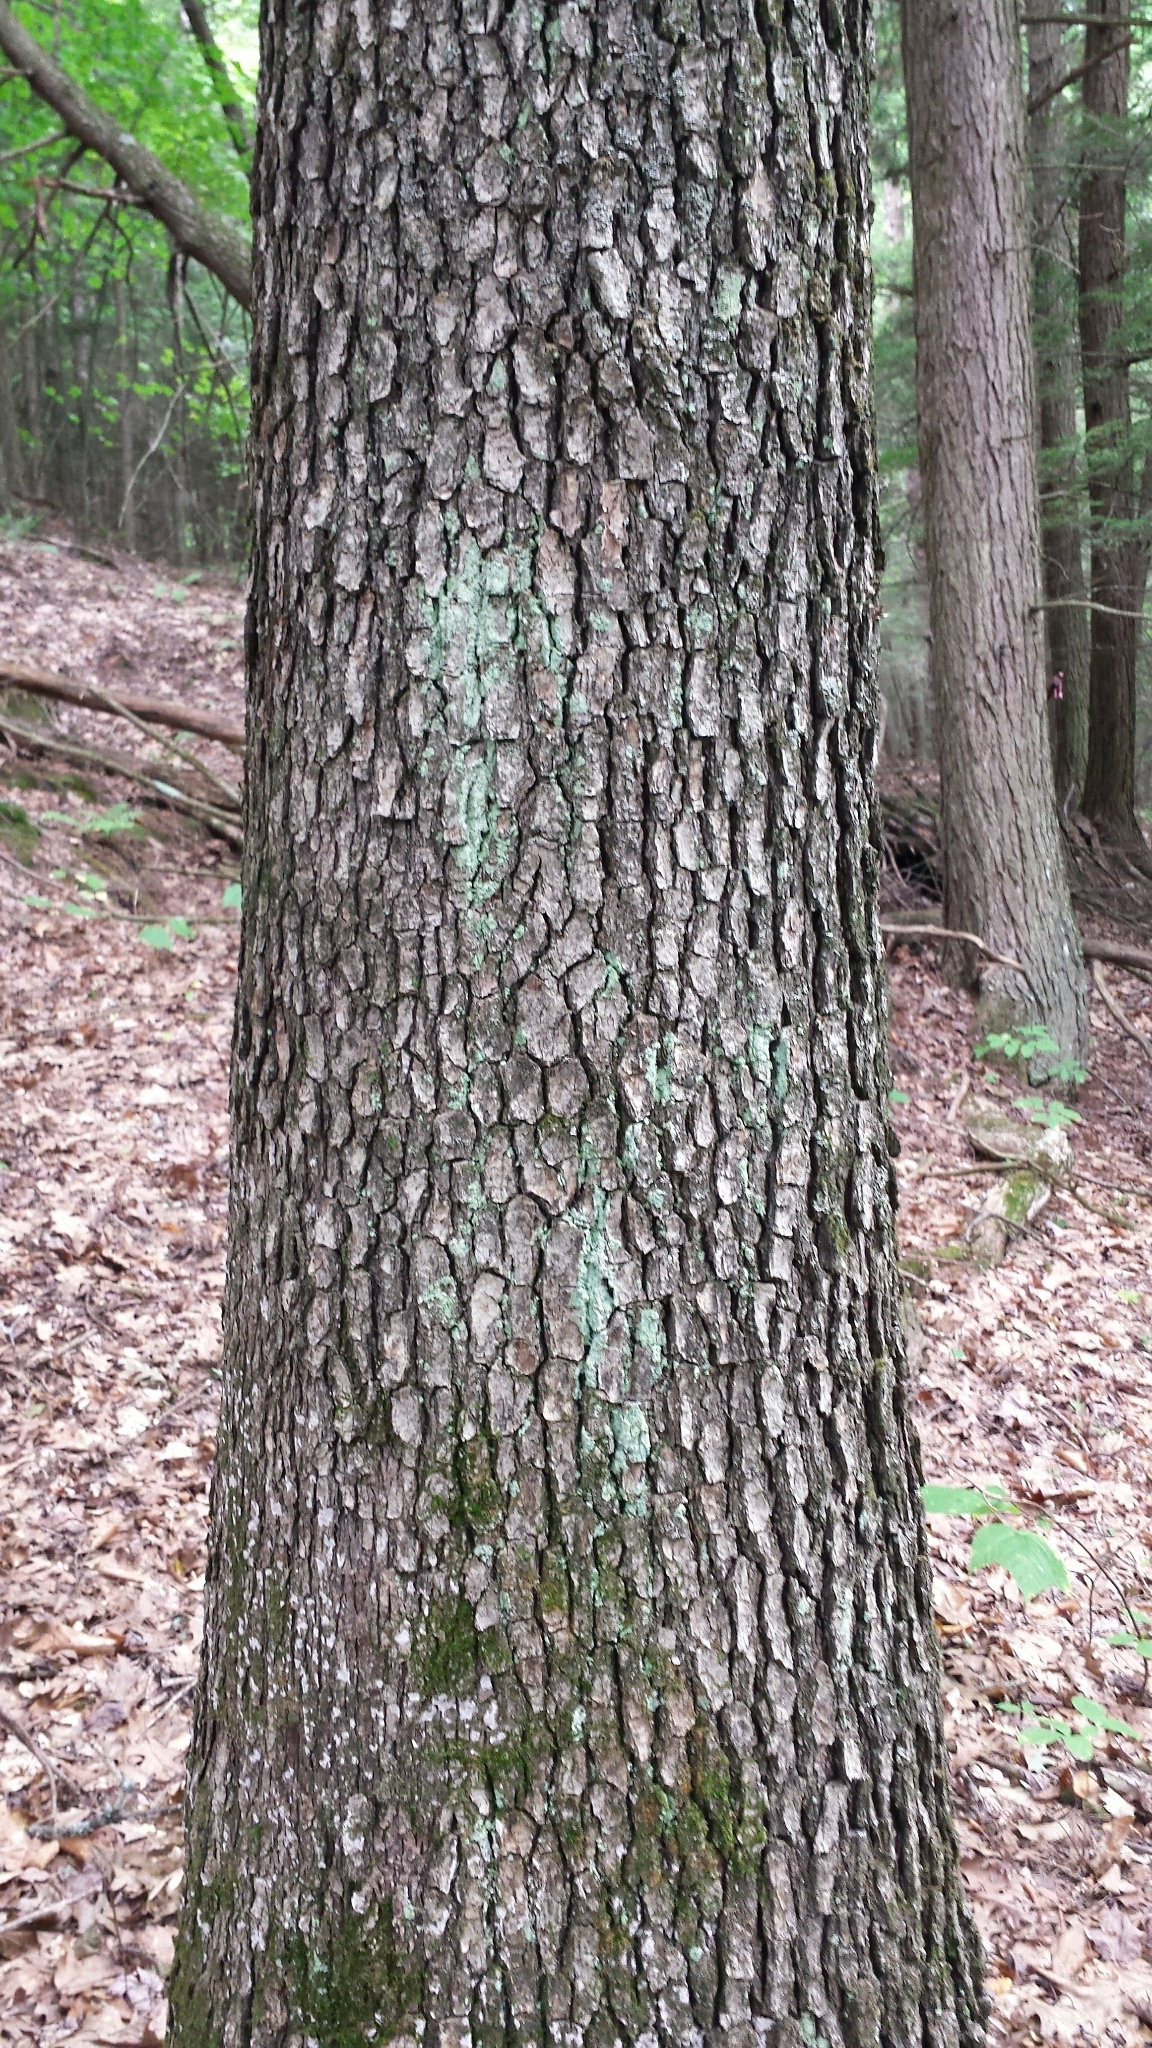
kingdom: Plantae
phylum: Tracheophyta
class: Magnoliopsida
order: Fagales
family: Fagaceae
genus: Quercus
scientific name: Quercus alba
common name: White oak
